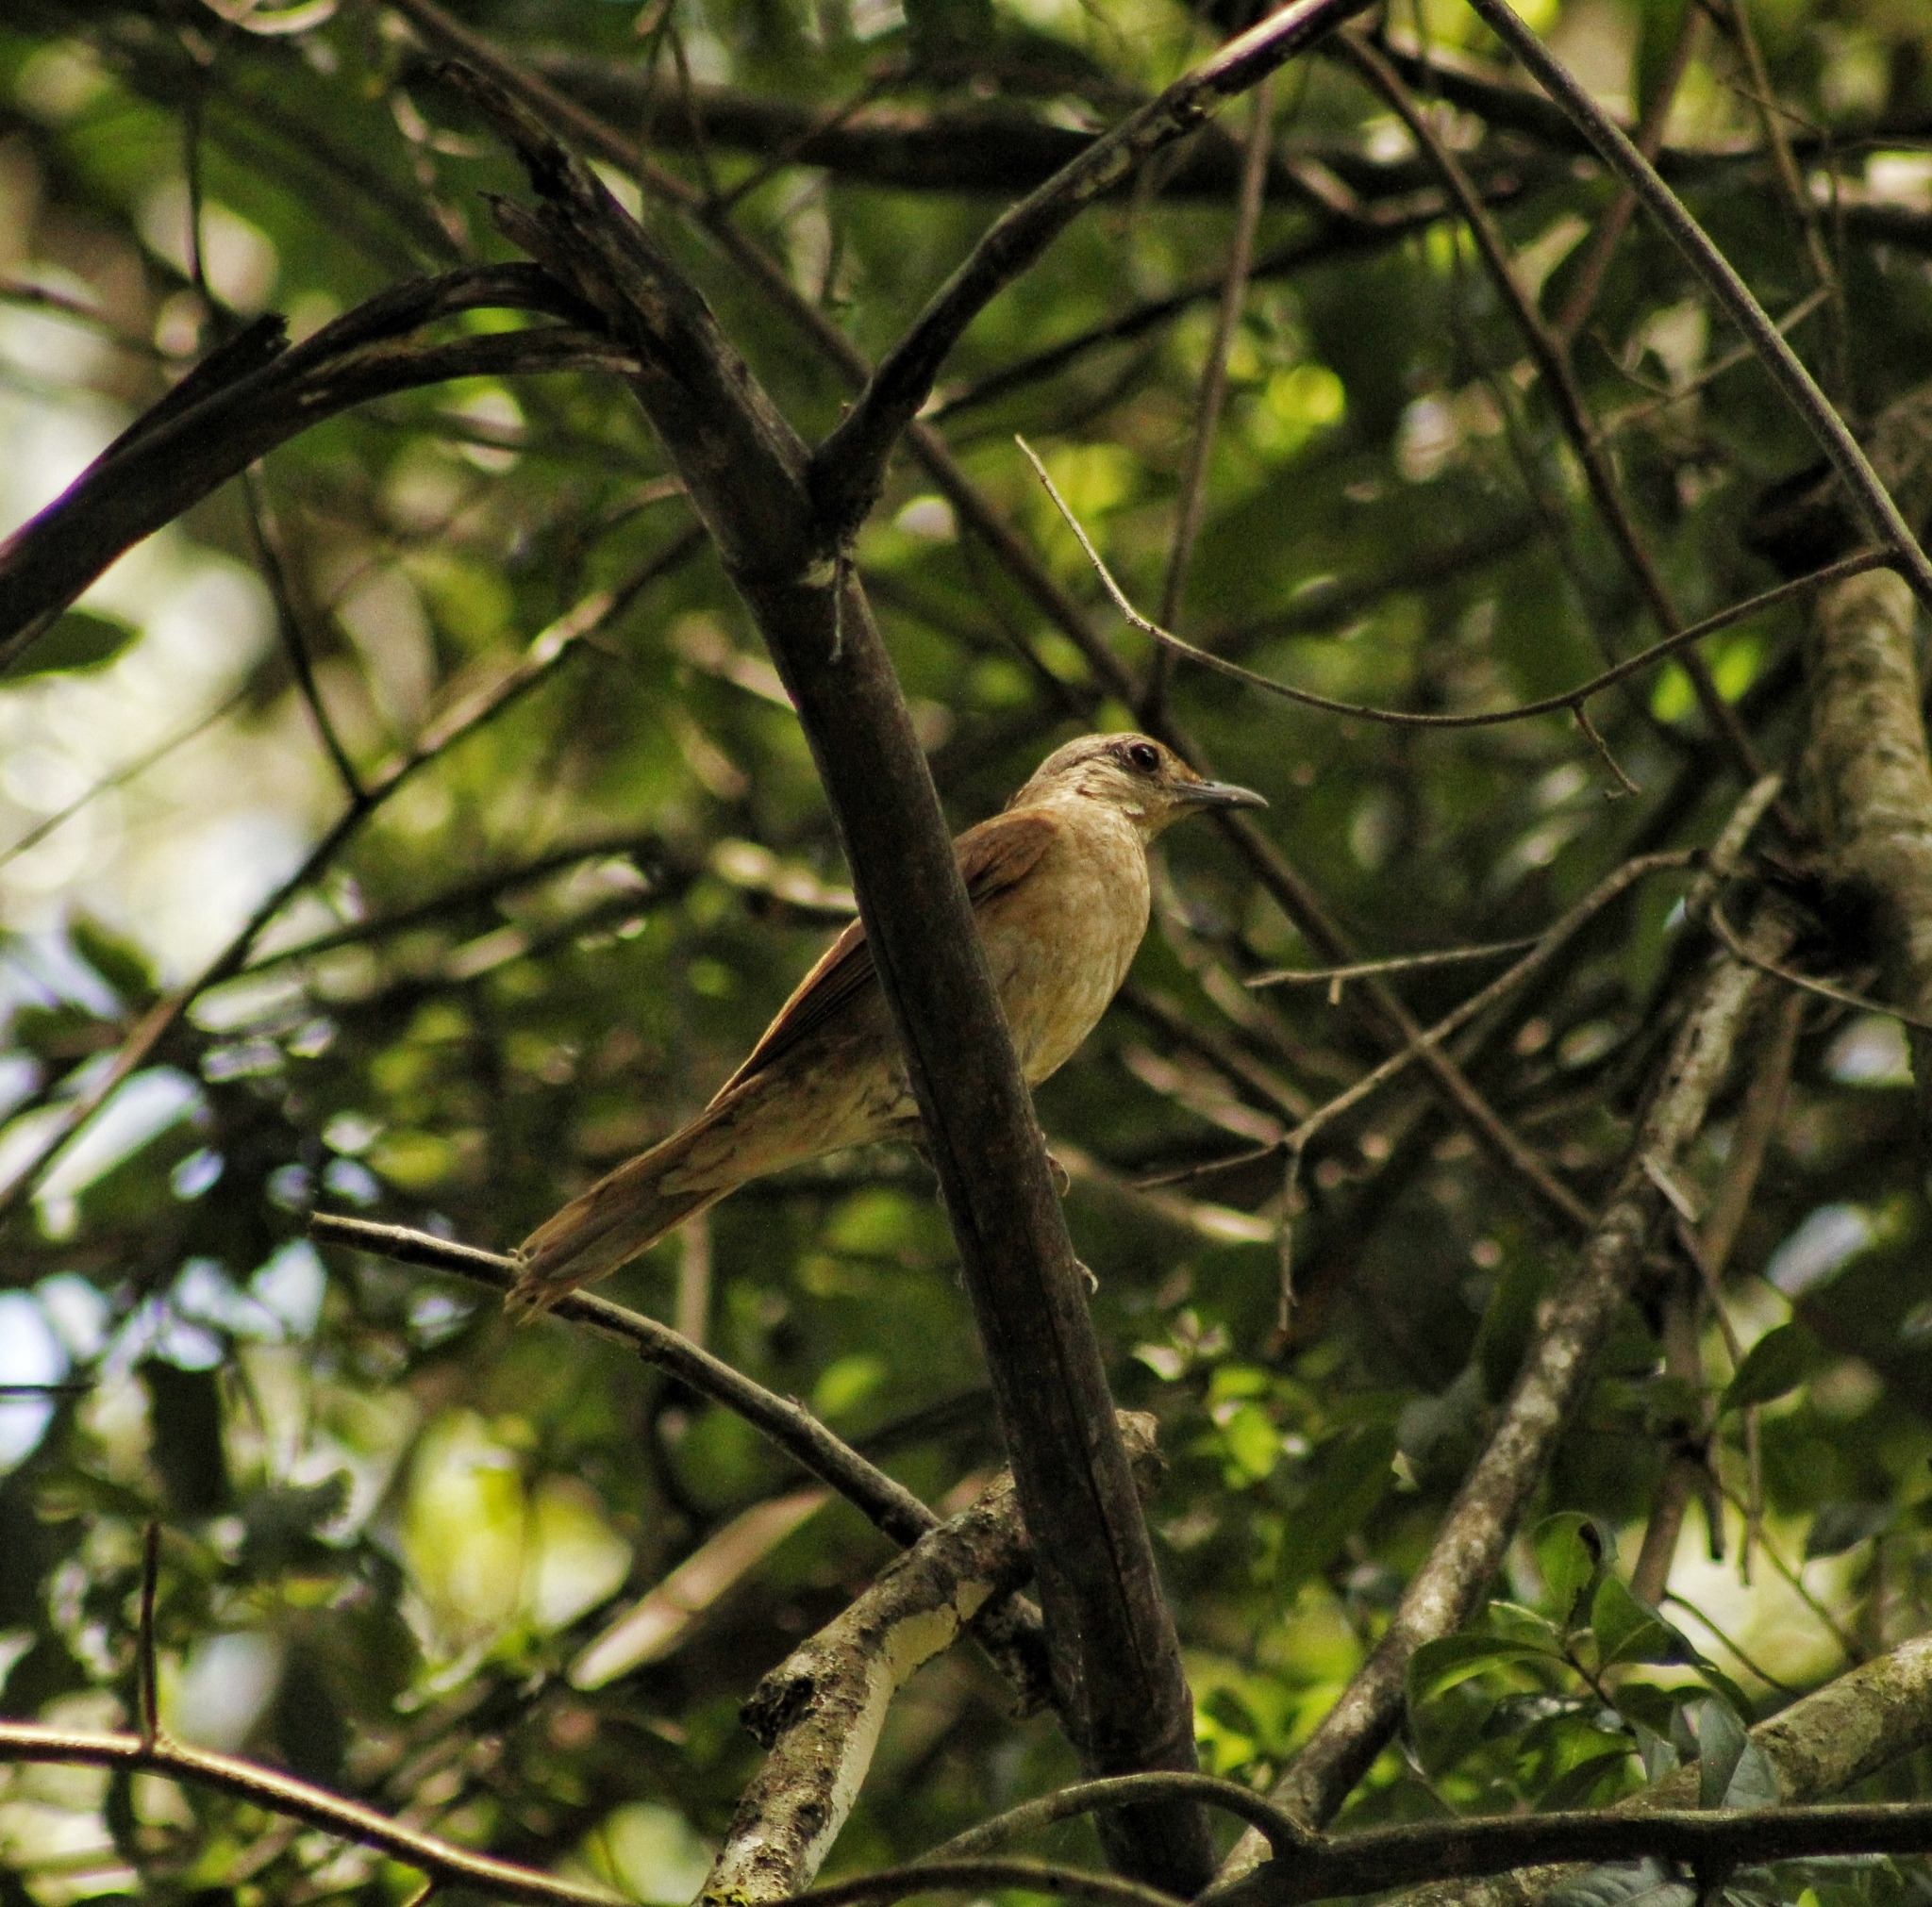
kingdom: Animalia
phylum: Chordata
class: Aves
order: Passeriformes
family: Turdidae
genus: Turdus
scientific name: Turdus leucomelas
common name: Pale-breasted thrush
